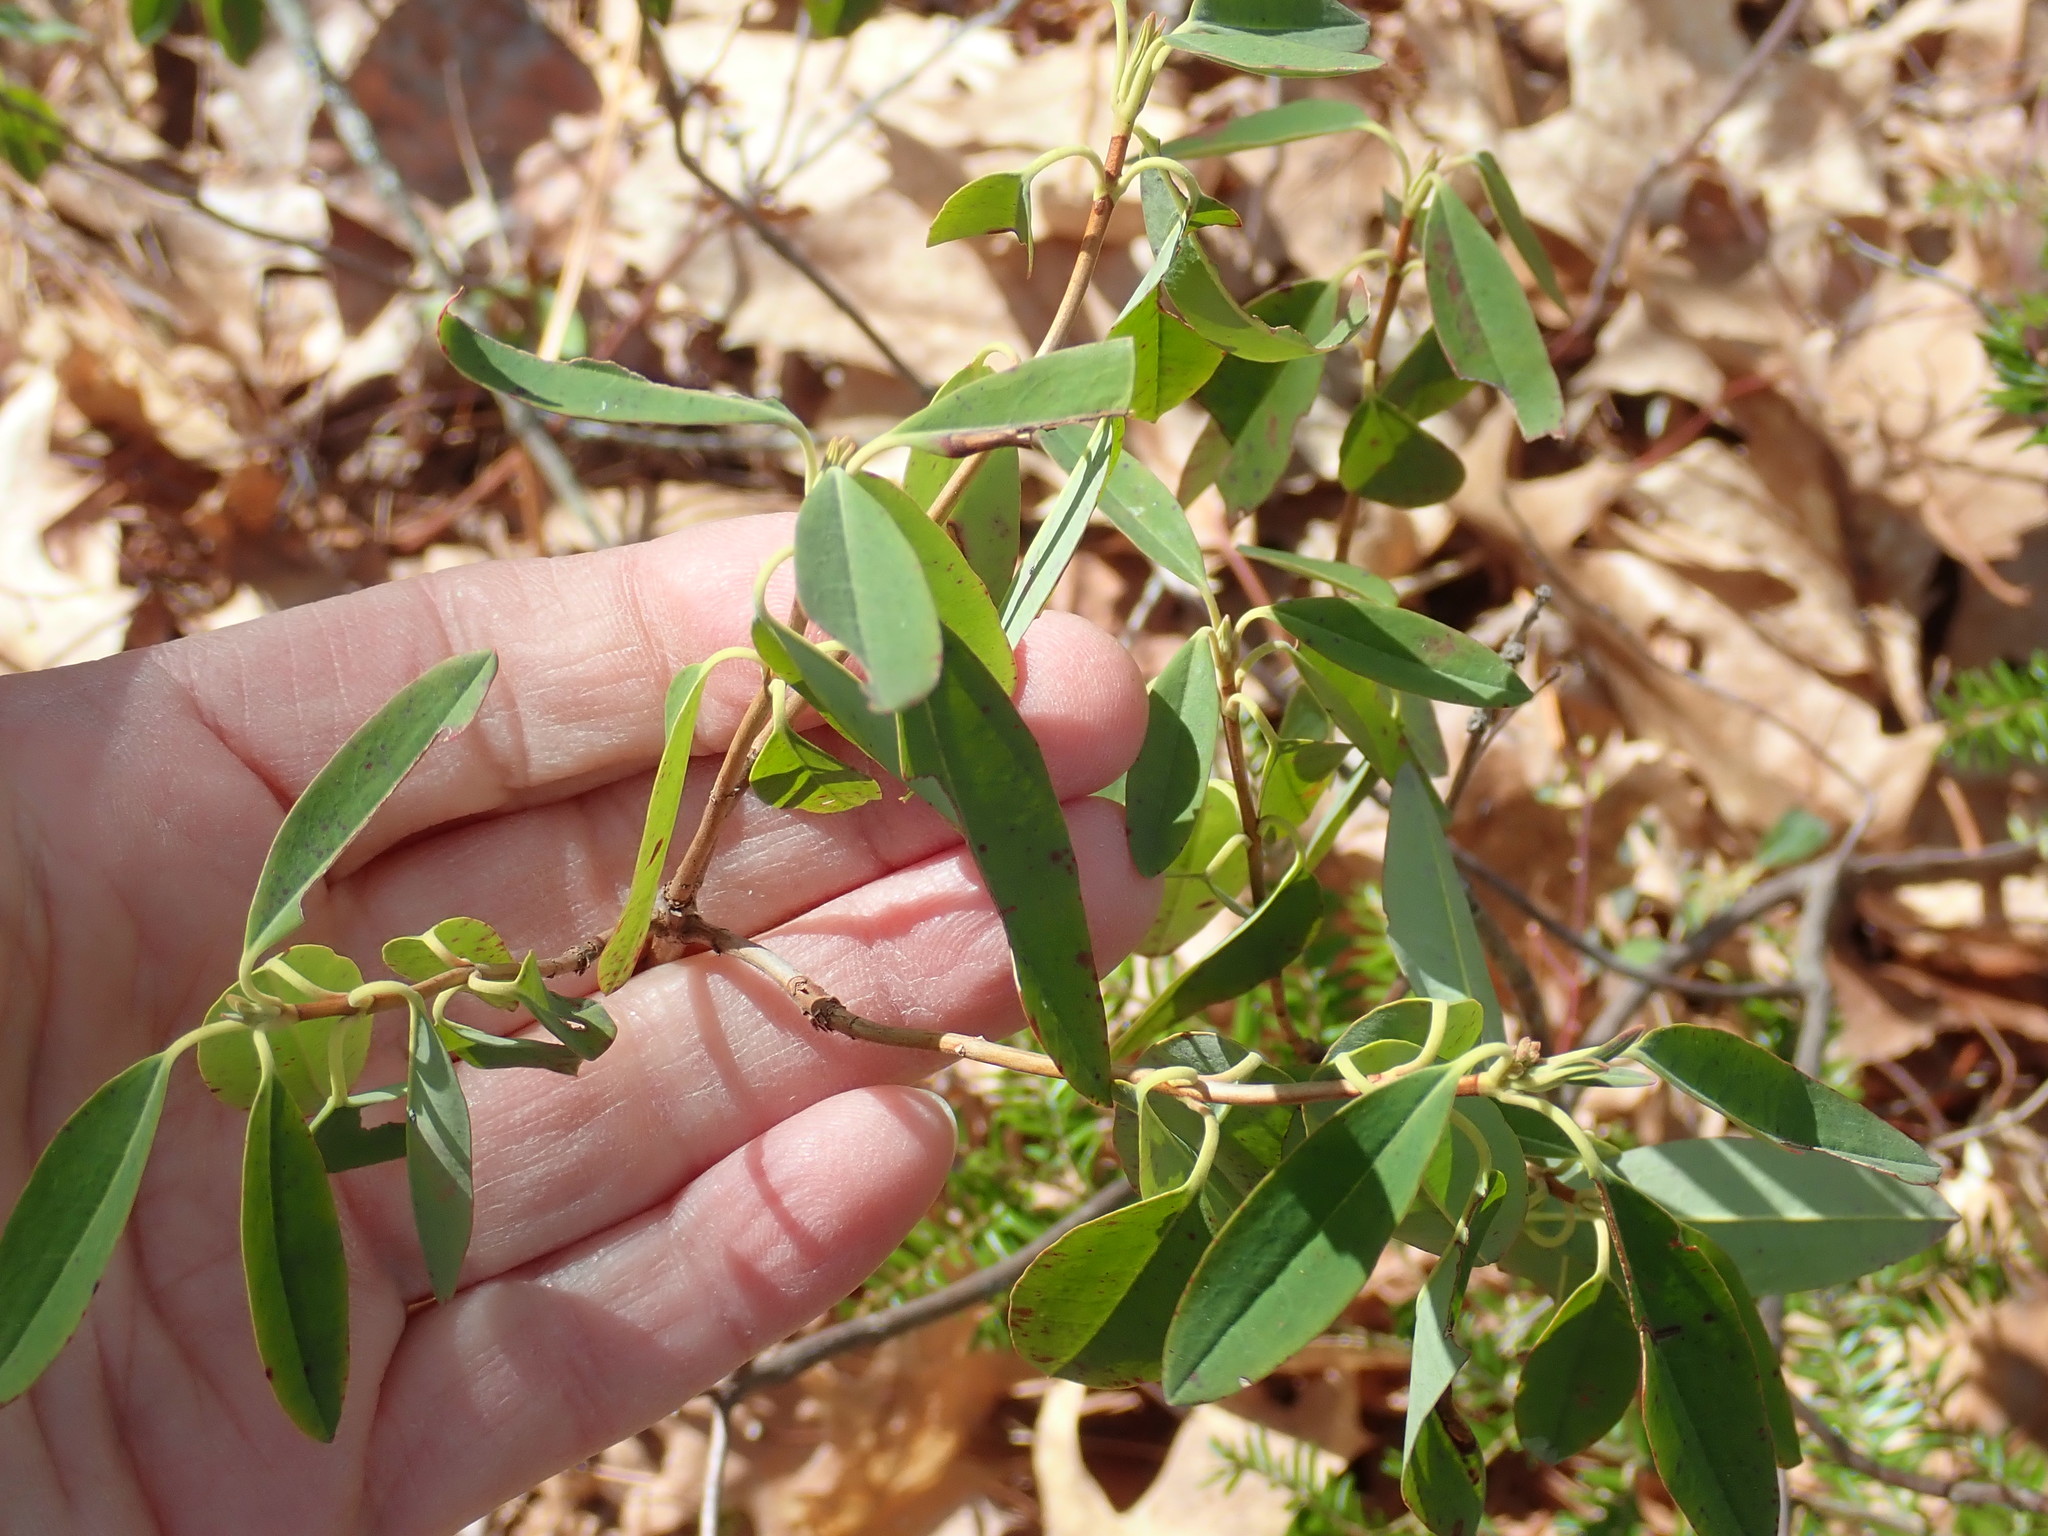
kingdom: Plantae
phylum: Tracheophyta
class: Magnoliopsida
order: Ericales
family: Ericaceae
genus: Kalmia
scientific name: Kalmia angustifolia
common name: Sheep-laurel
